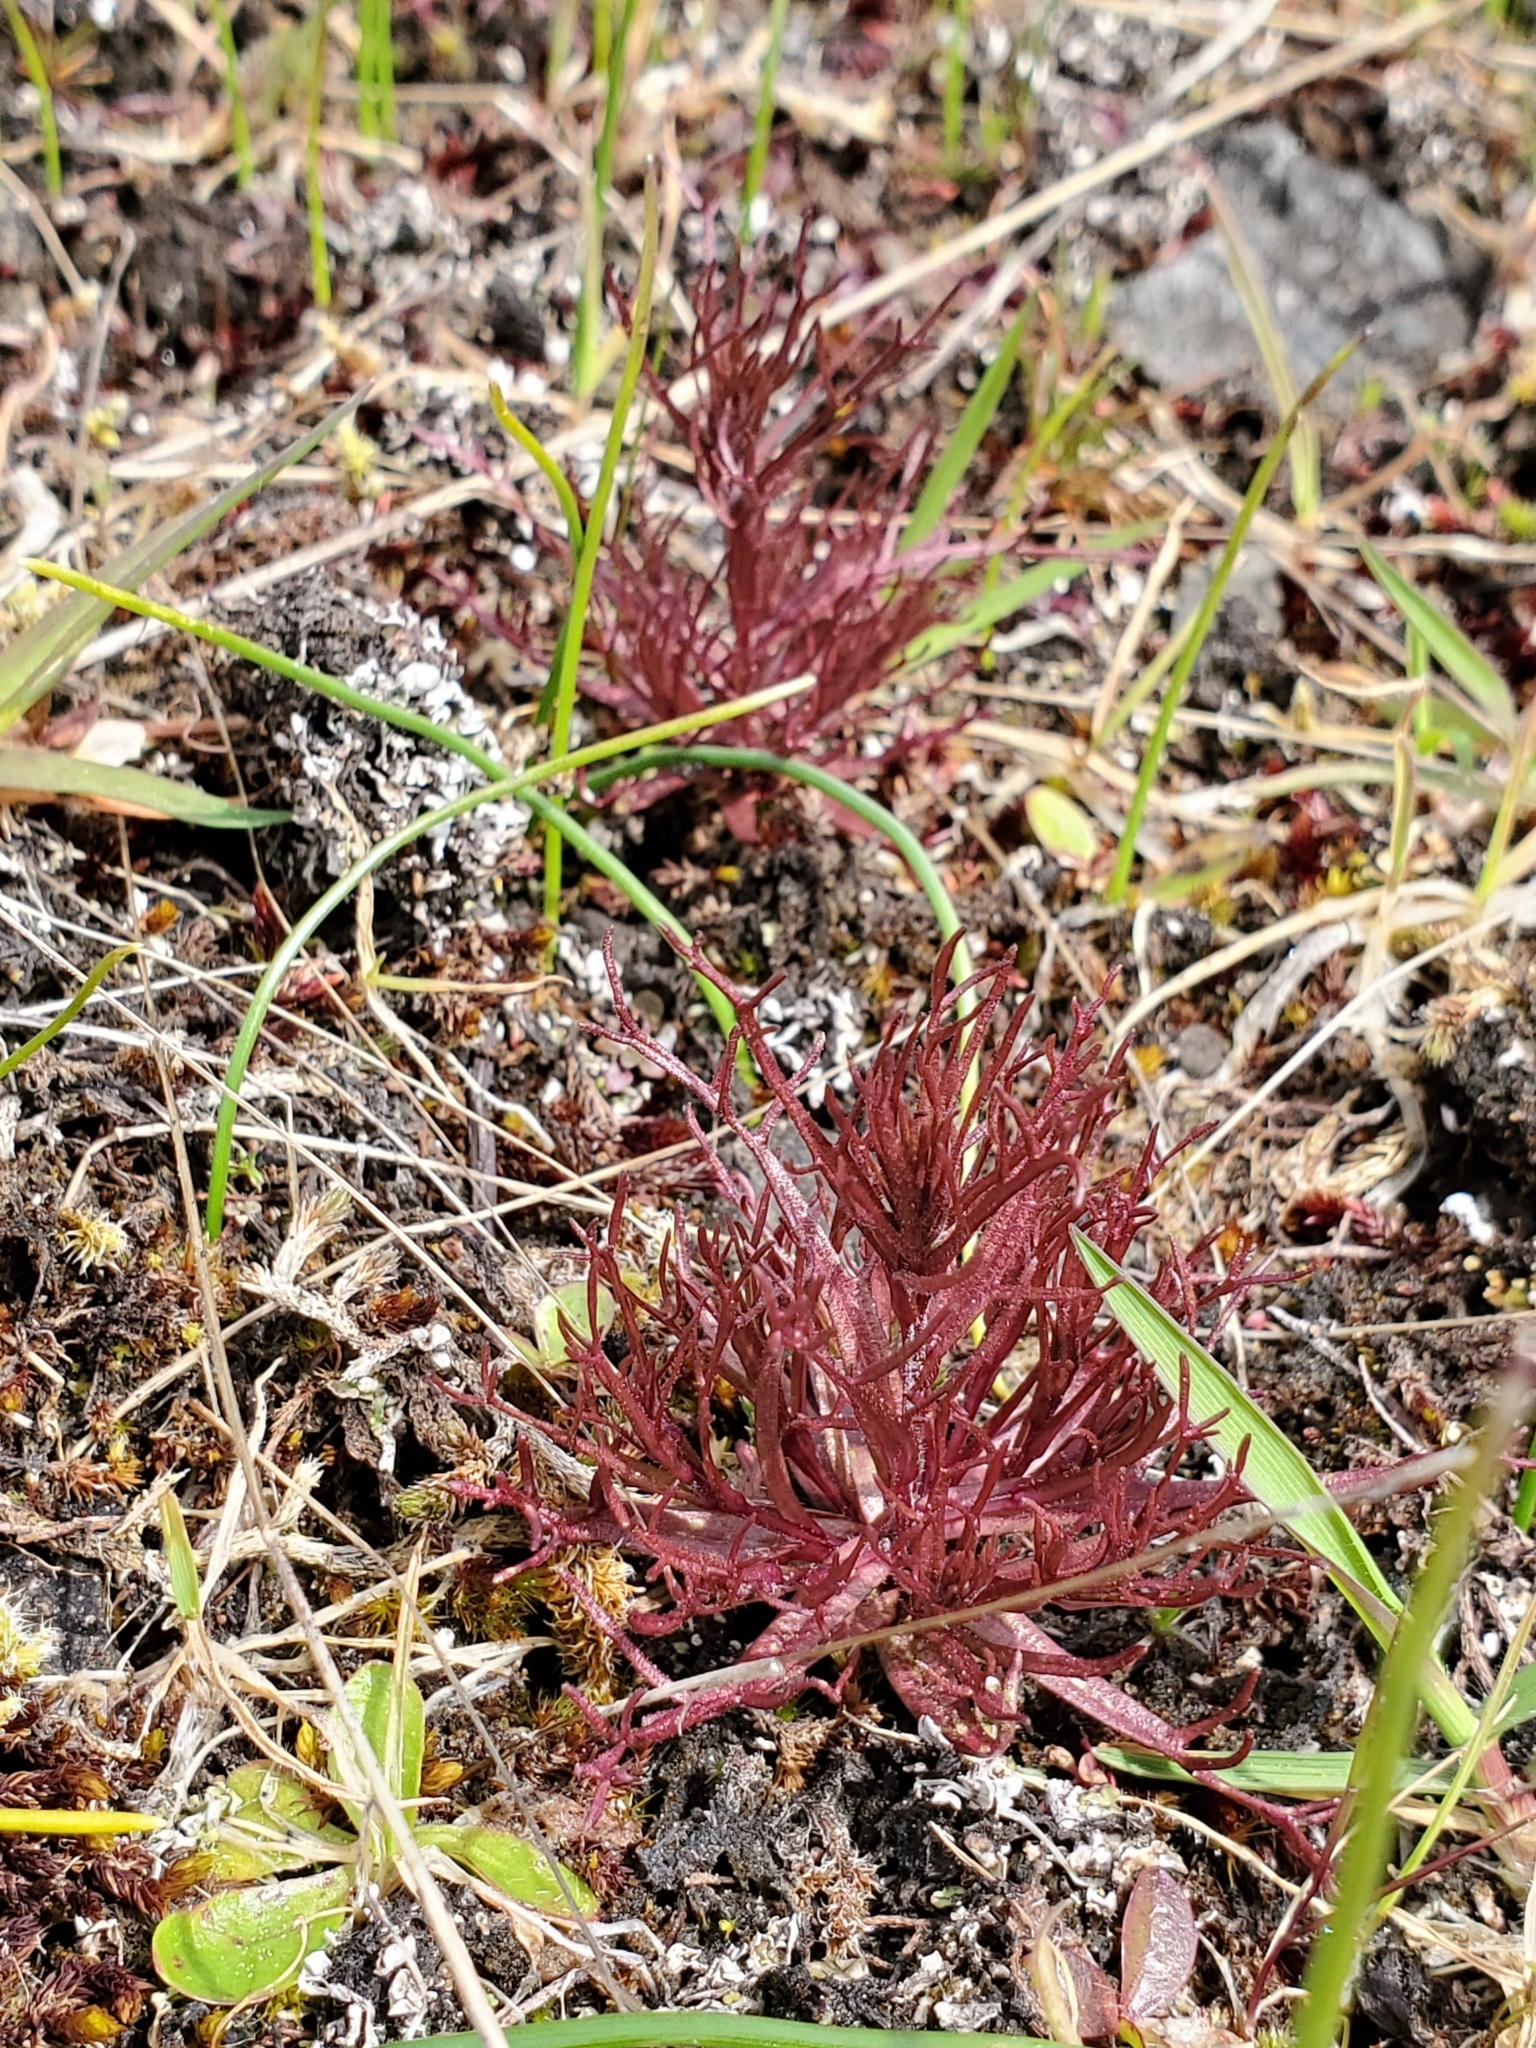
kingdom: Plantae
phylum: Tracheophyta
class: Magnoliopsida
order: Lamiales
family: Orobanchaceae
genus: Triphysaria
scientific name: Triphysaria pusilla
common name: Dwarf false owl-clover
